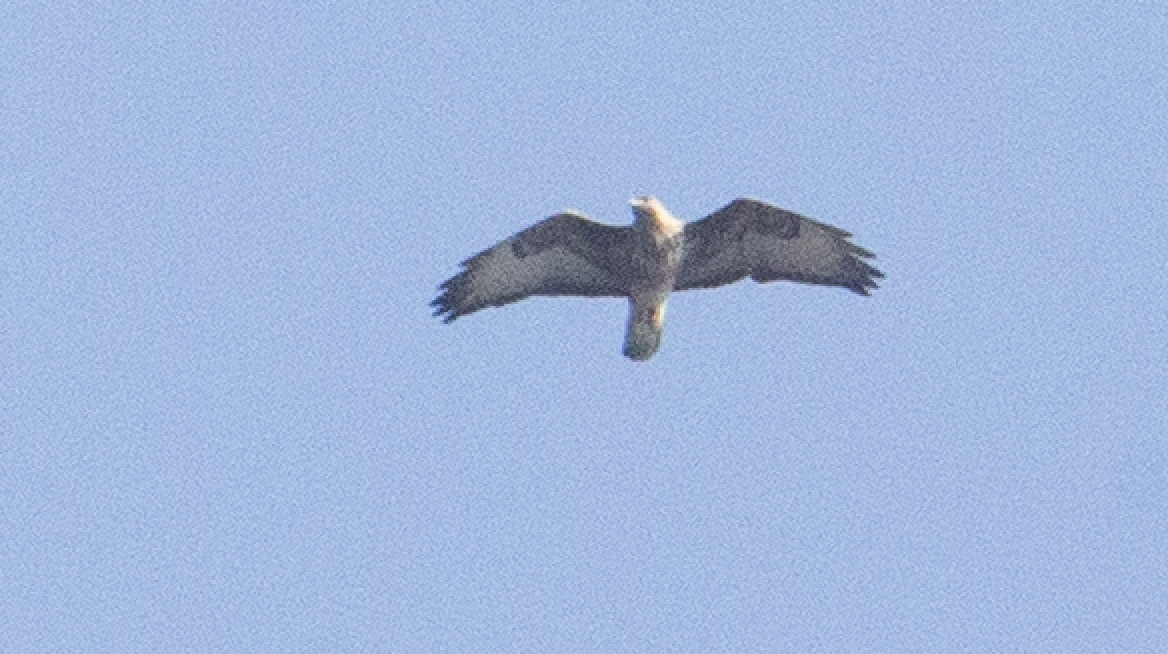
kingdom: Animalia
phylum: Chordata
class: Aves
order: Accipitriformes
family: Accipitridae
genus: Buteo
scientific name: Buteo buteo
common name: Common buzzard
